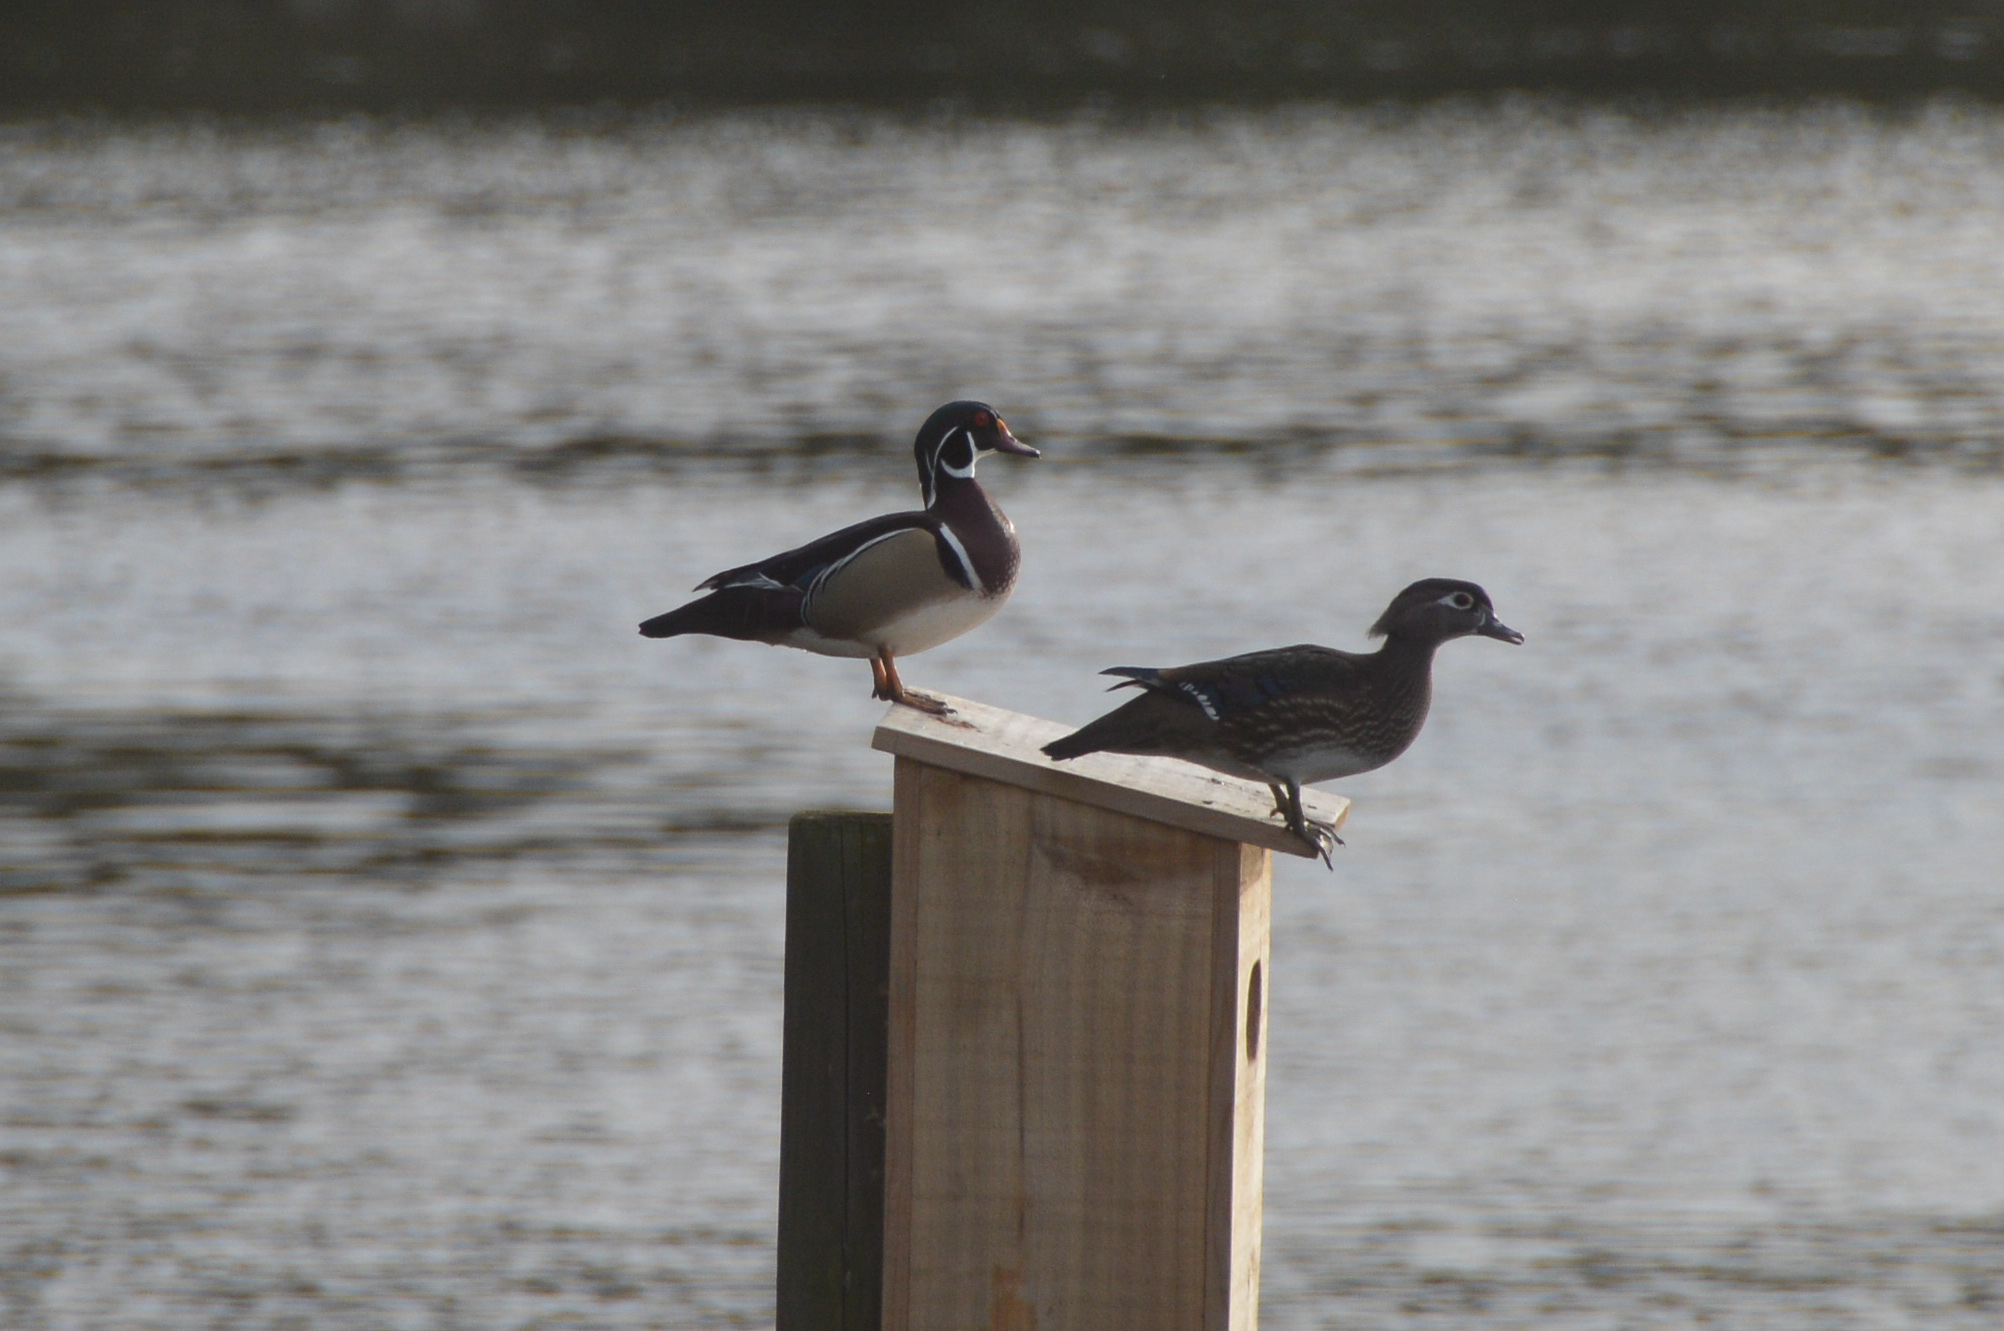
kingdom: Animalia
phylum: Chordata
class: Aves
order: Anseriformes
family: Anatidae
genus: Aix
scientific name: Aix sponsa
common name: Wood duck
